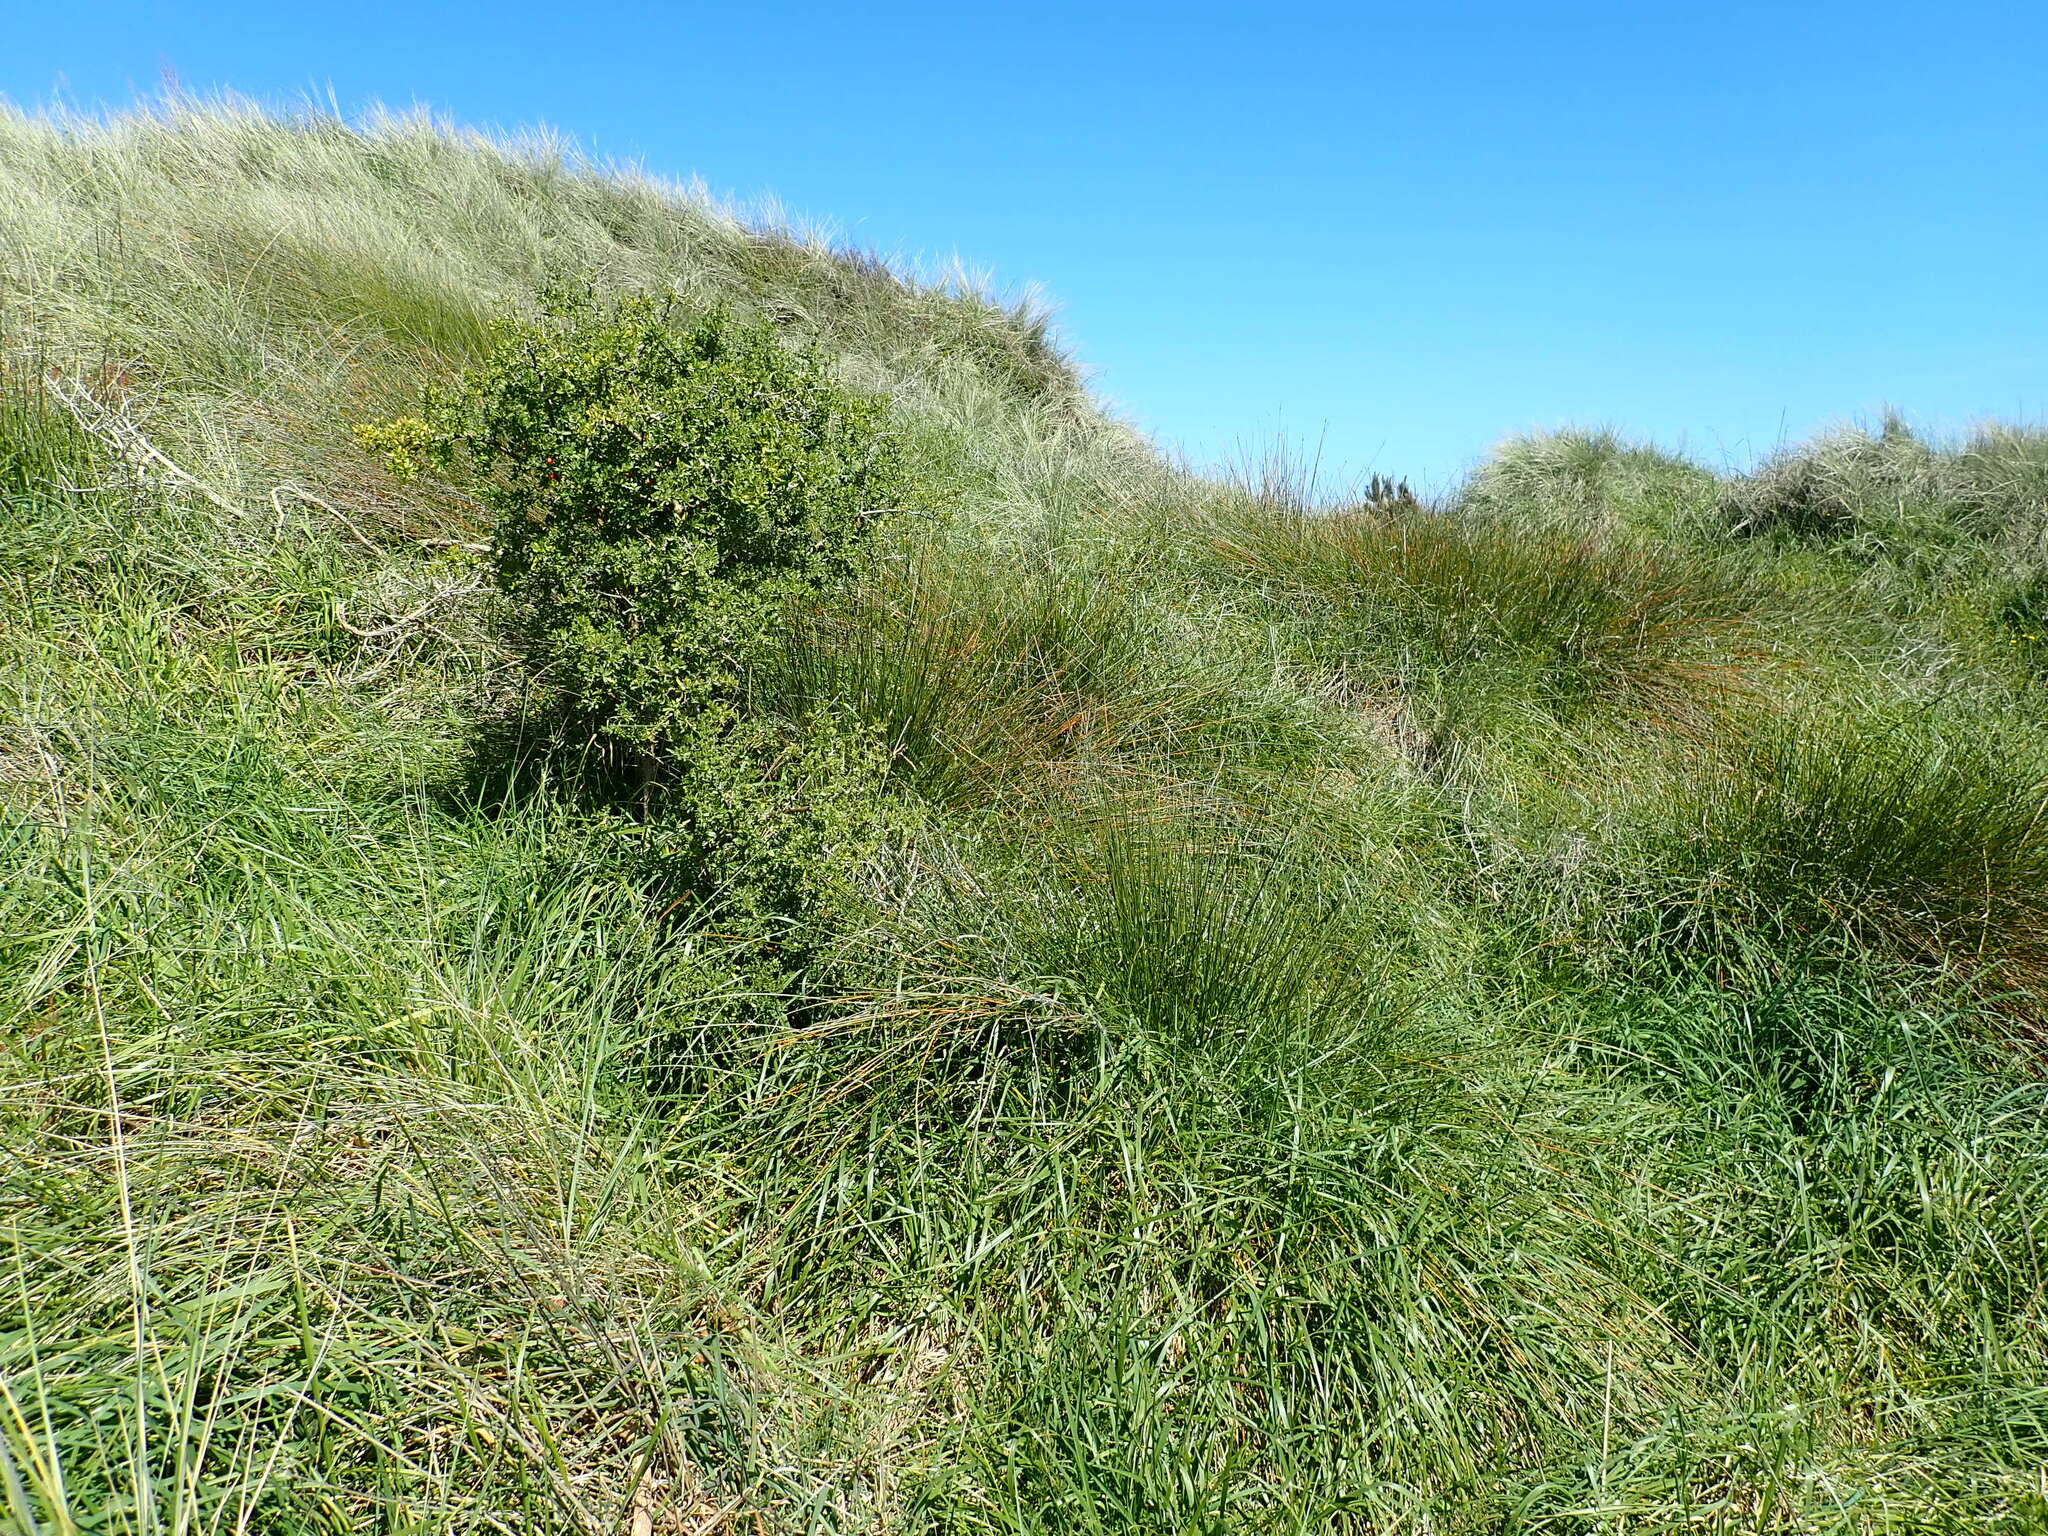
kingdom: Plantae
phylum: Tracheophyta
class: Magnoliopsida
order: Solanales
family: Solanaceae
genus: Lycium
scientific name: Lycium ferocissimum
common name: African boxthorn
